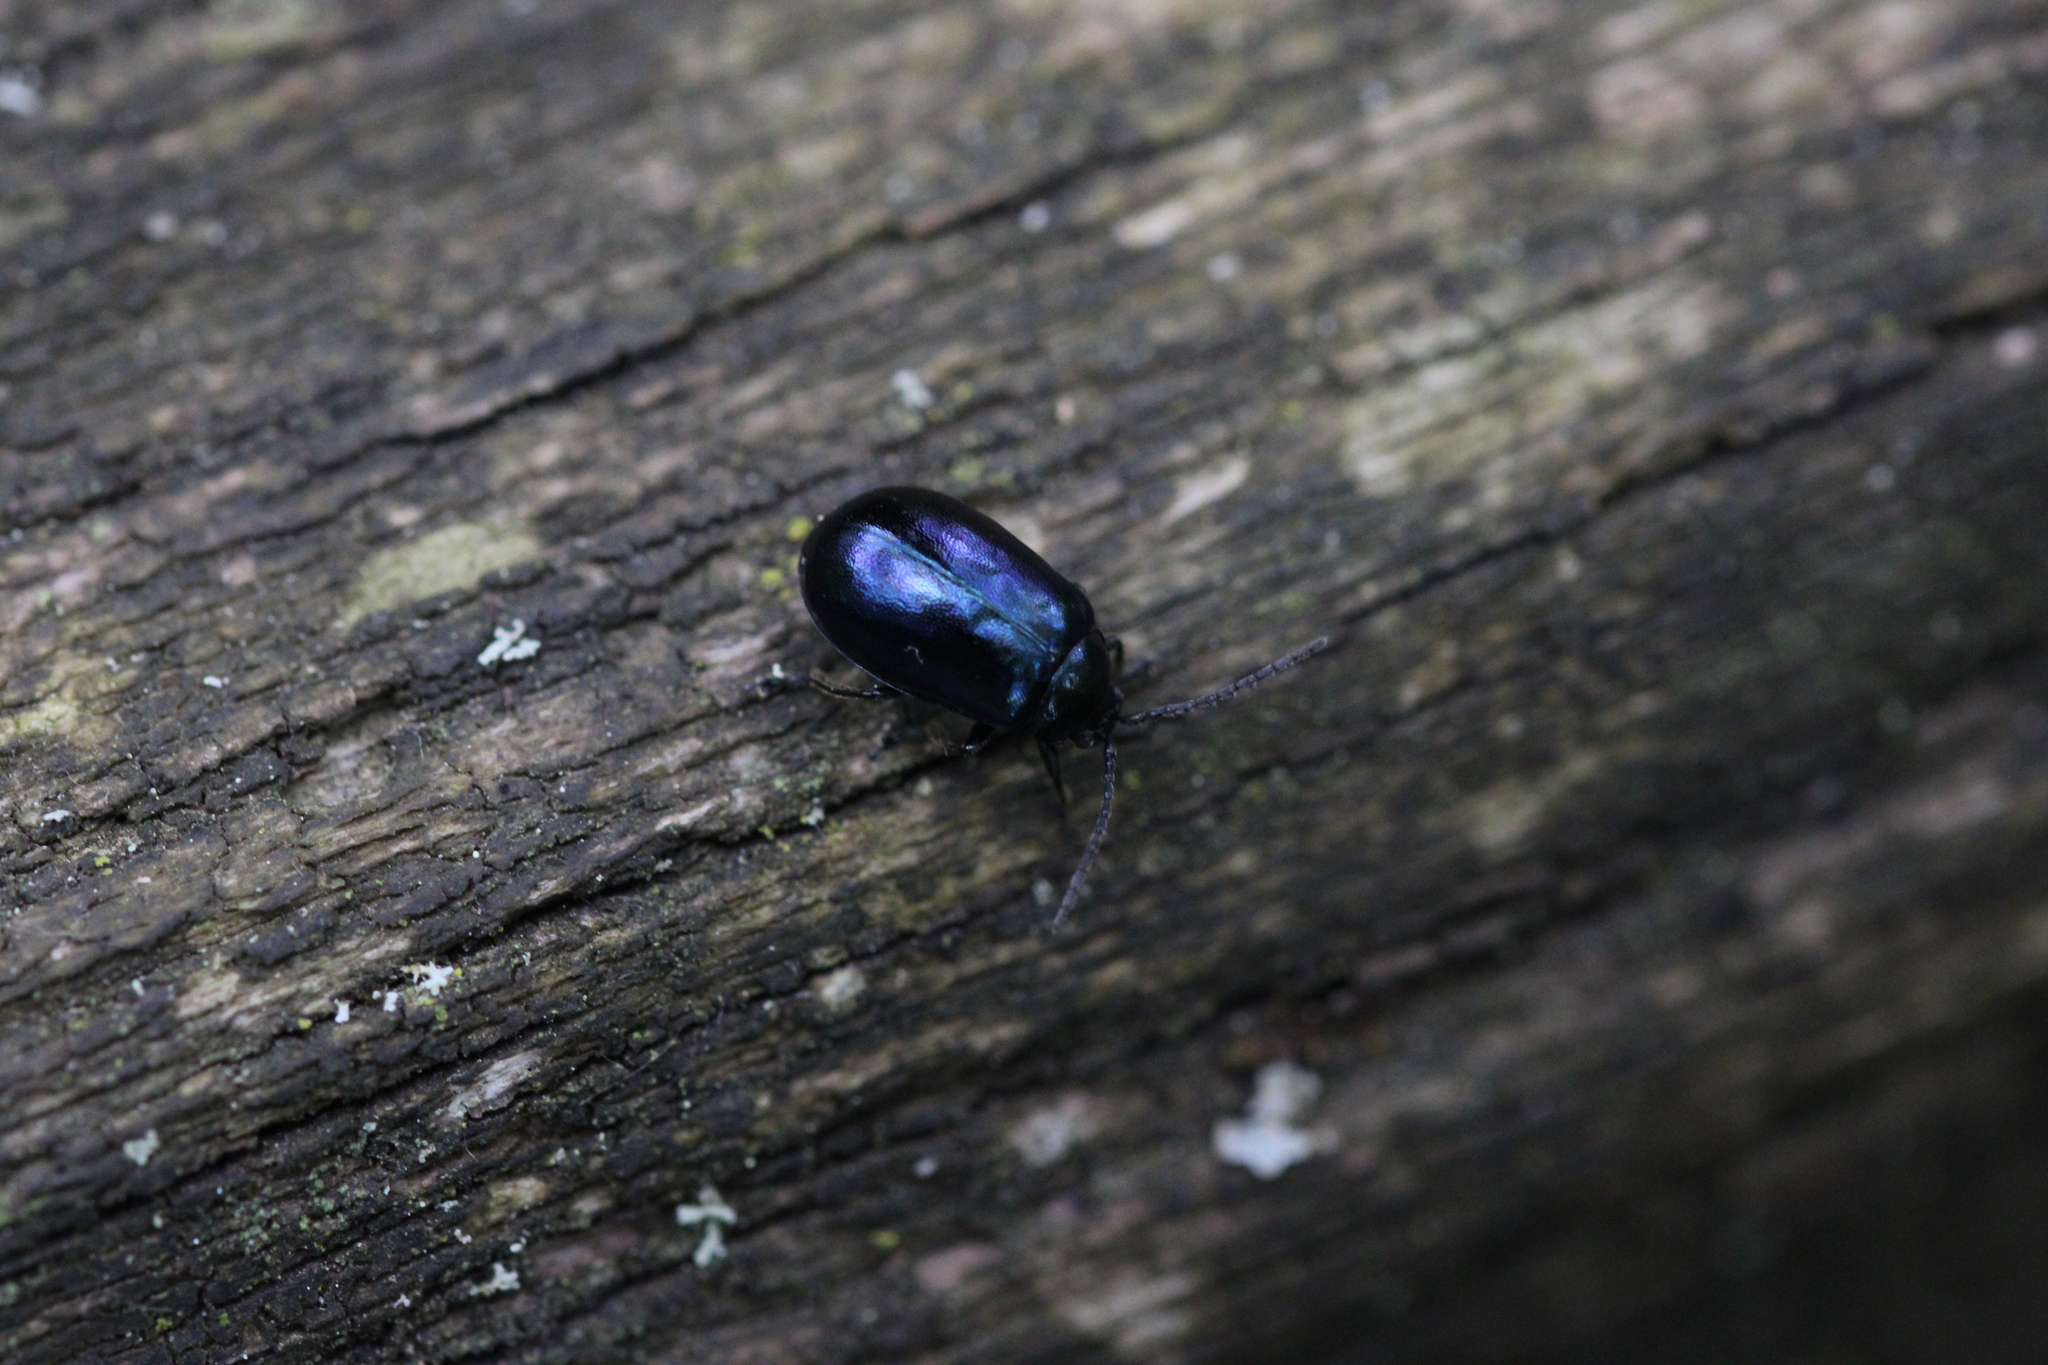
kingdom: Animalia
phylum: Arthropoda
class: Insecta
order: Coleoptera
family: Chrysomelidae
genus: Agelastica
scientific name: Agelastica alni
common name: Alder leaf beetle
